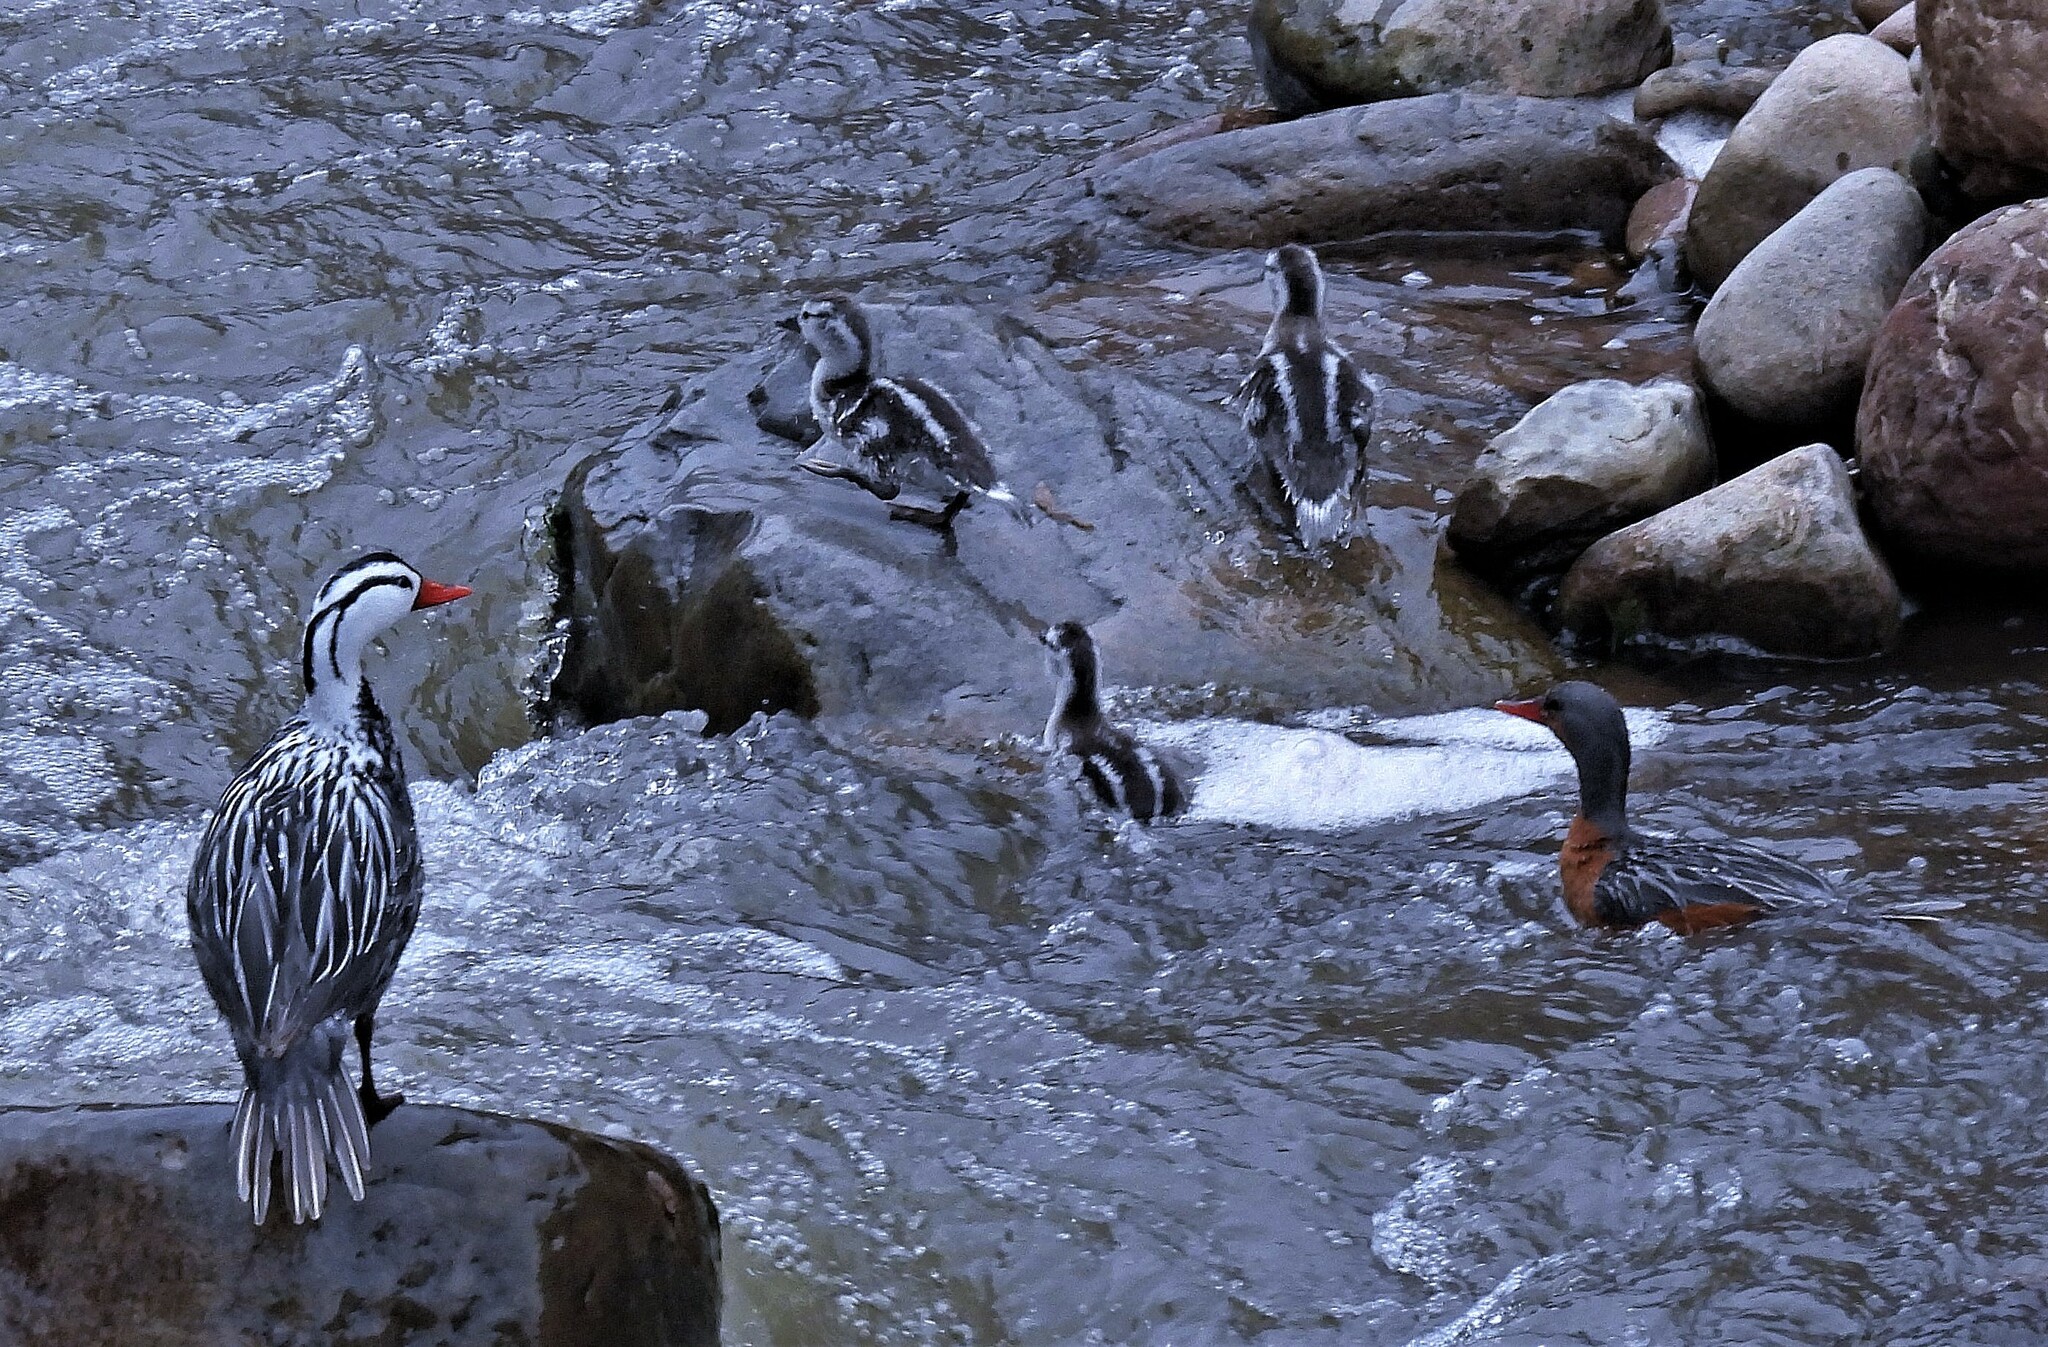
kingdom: Animalia
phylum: Chordata
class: Aves
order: Anseriformes
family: Anatidae
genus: Merganetta
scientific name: Merganetta armata
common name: Torrent duck
